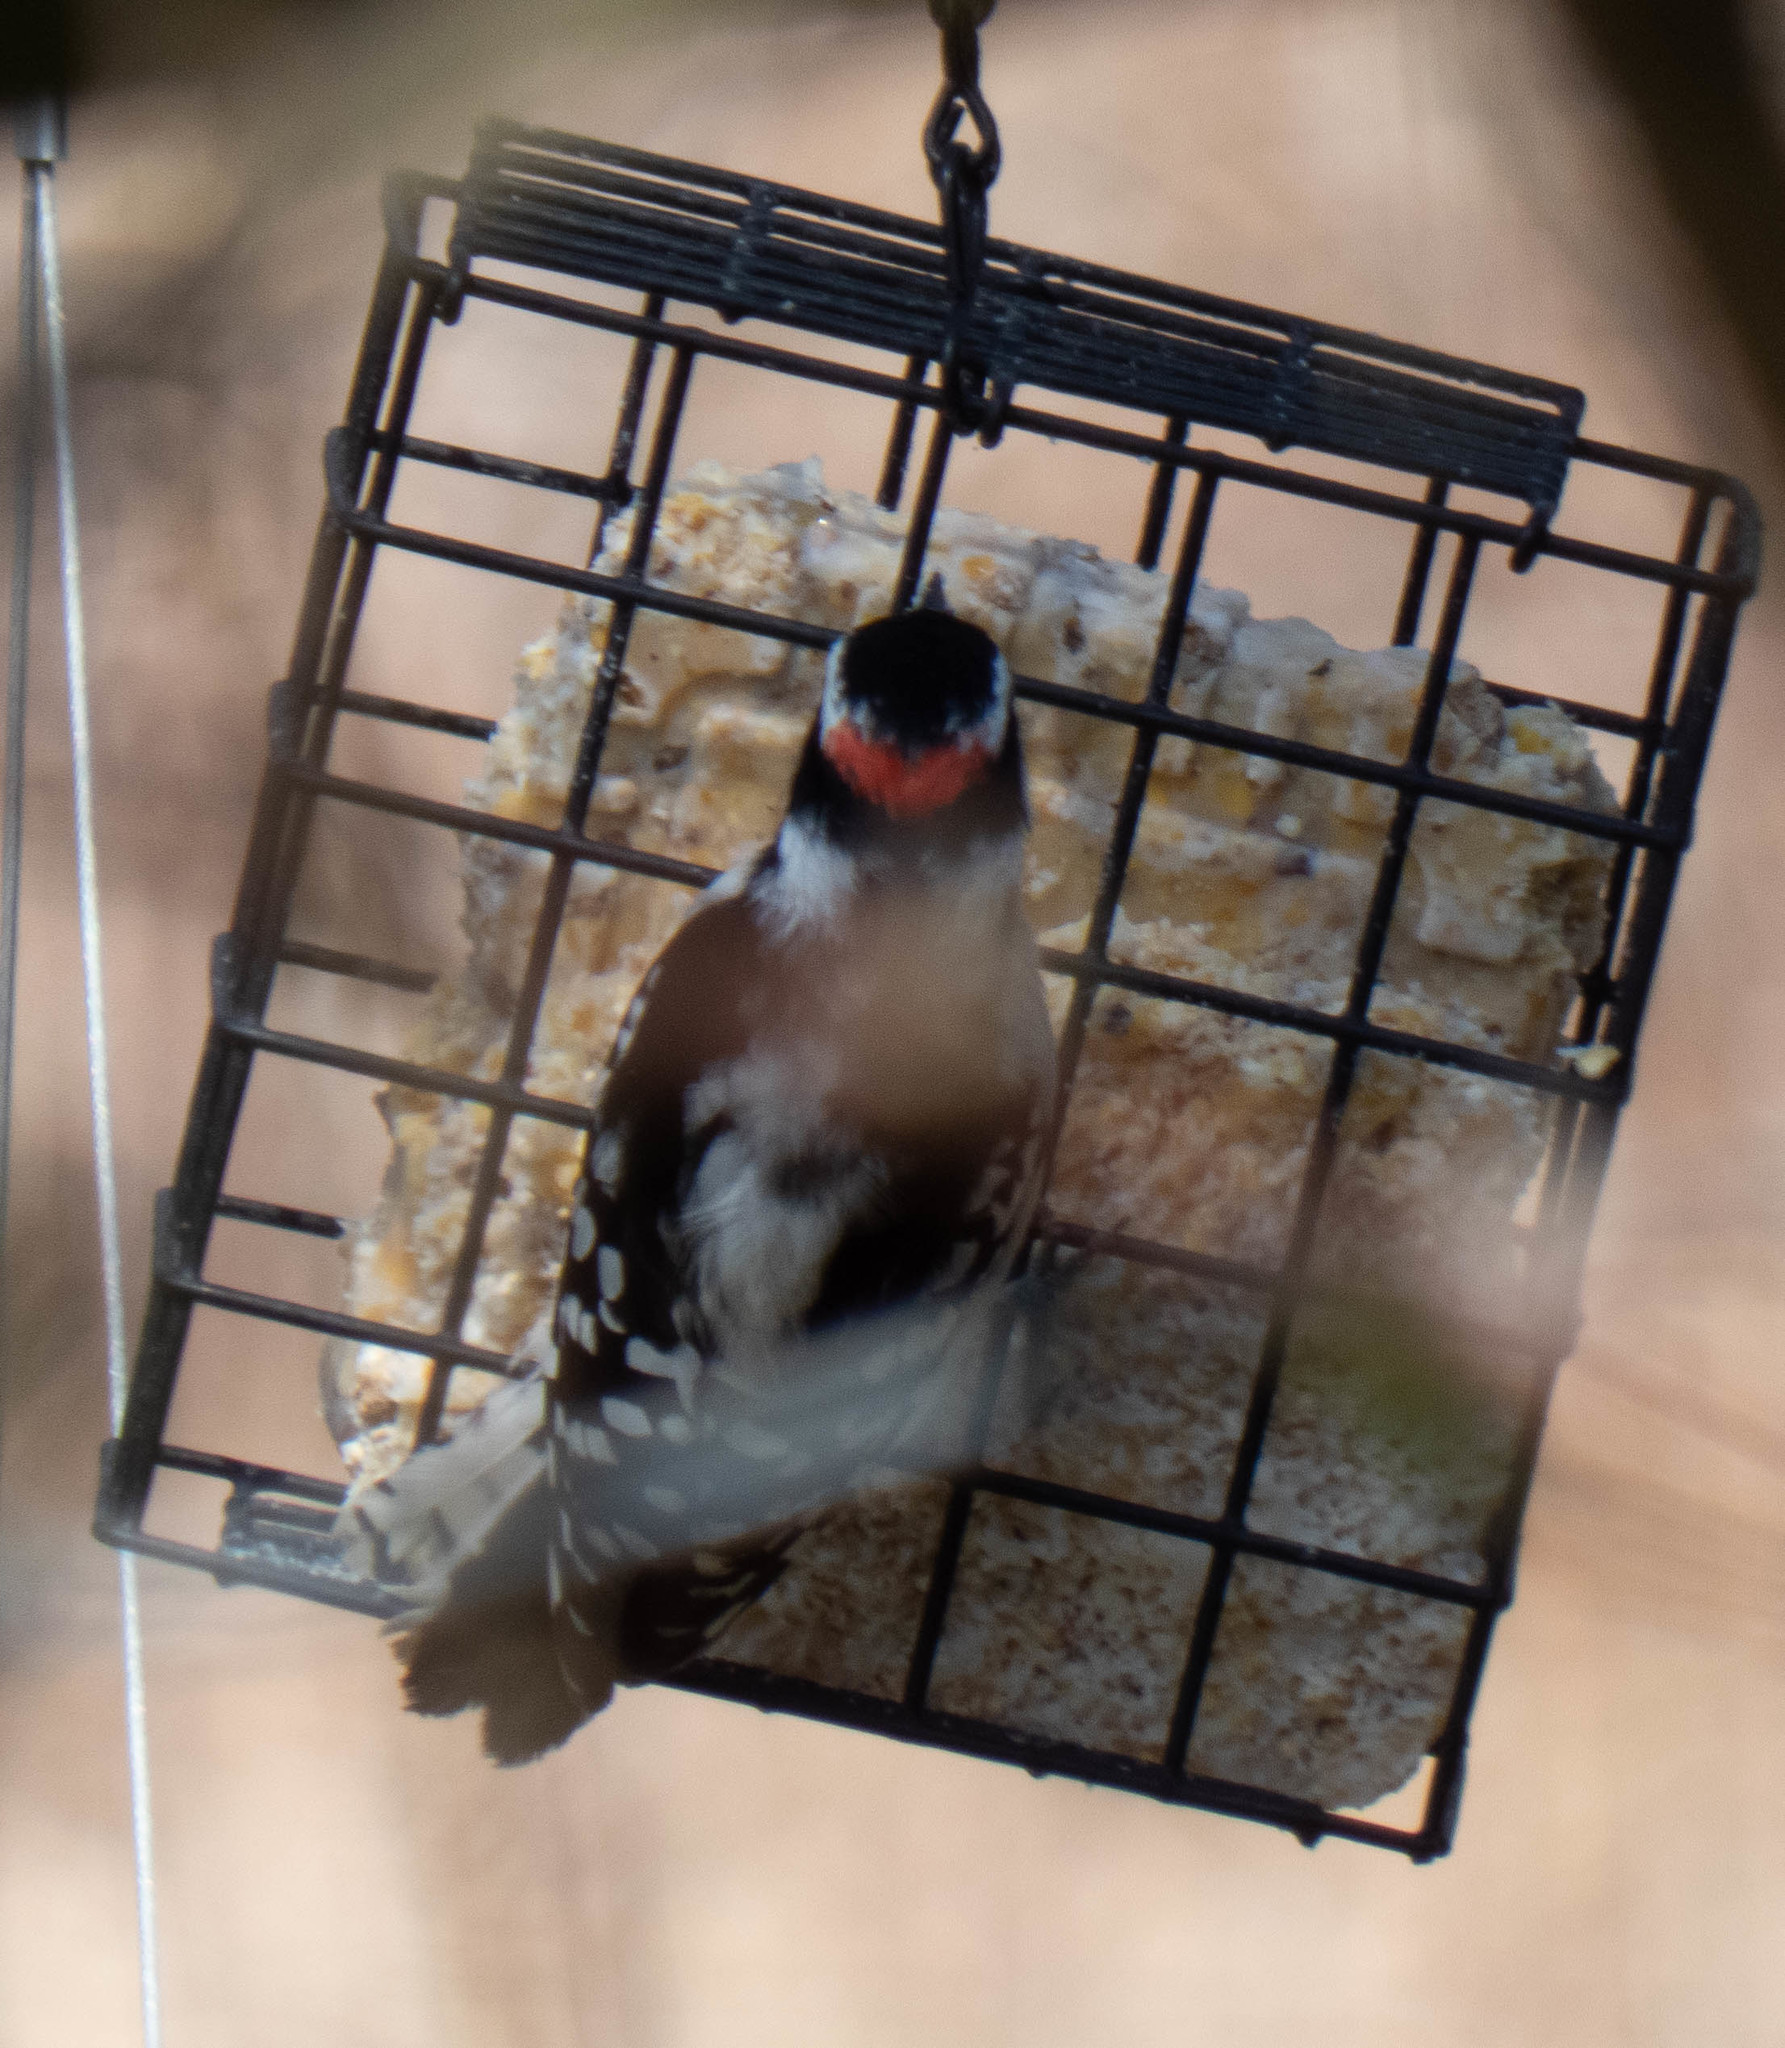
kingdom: Animalia
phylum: Chordata
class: Aves
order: Piciformes
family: Picidae
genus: Dryobates
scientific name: Dryobates pubescens
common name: Downy woodpecker
